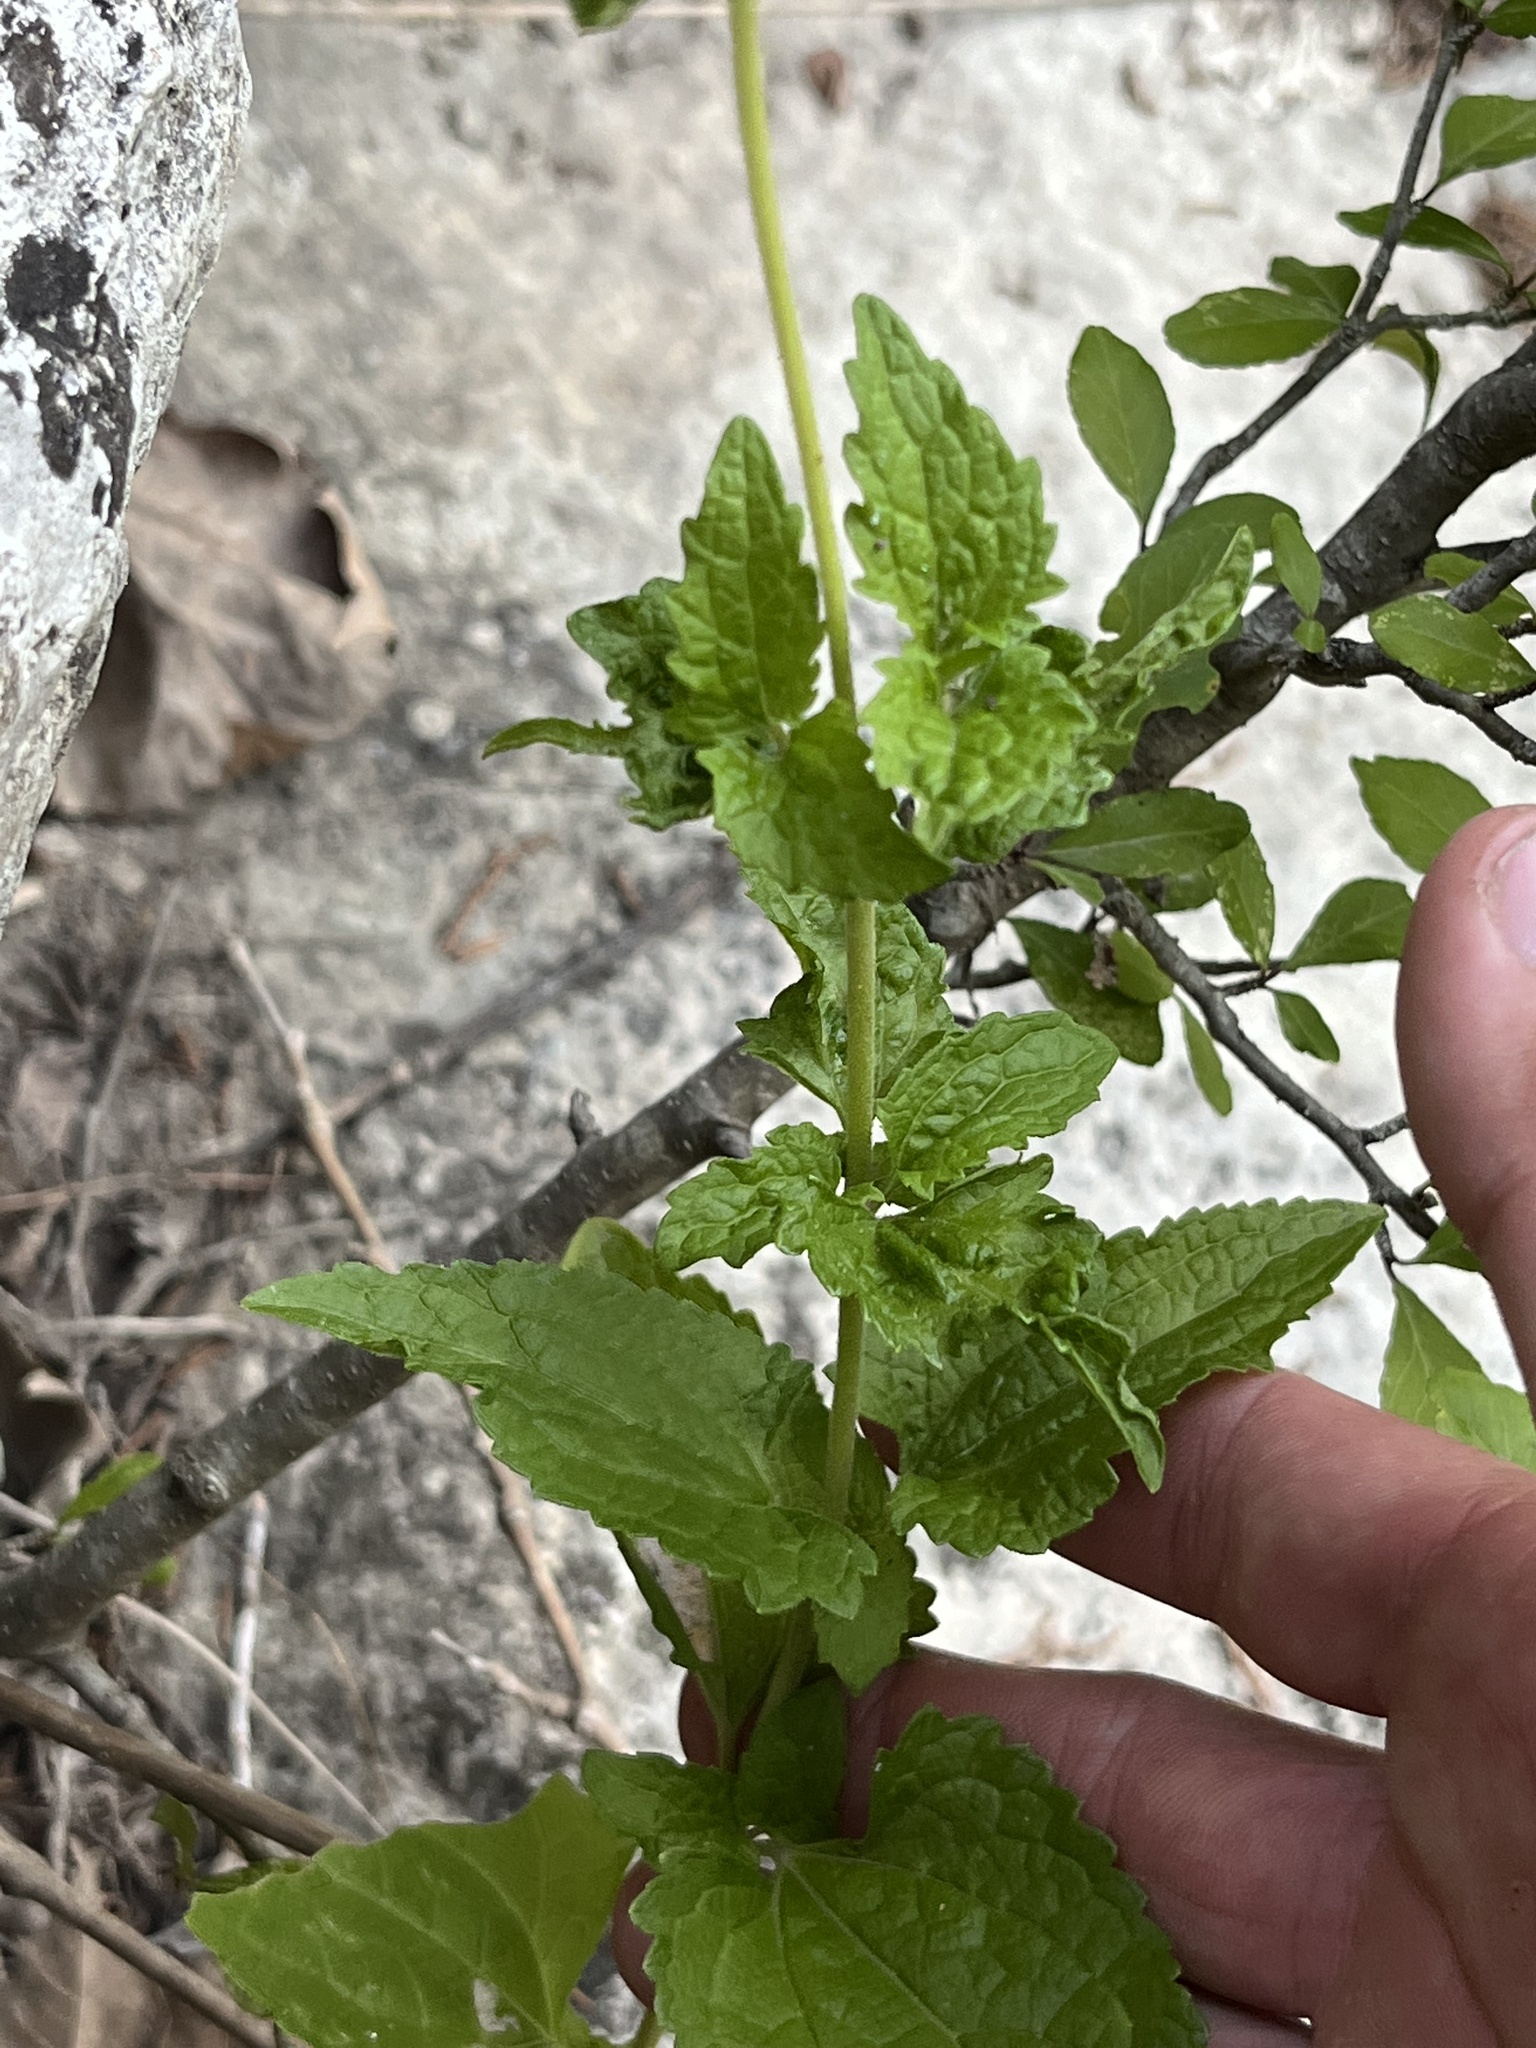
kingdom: Plantae
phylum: Tracheophyta
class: Magnoliopsida
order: Asterales
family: Asteraceae
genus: Conoclinium
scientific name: Conoclinium coelestinum
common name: Blue mistflower
